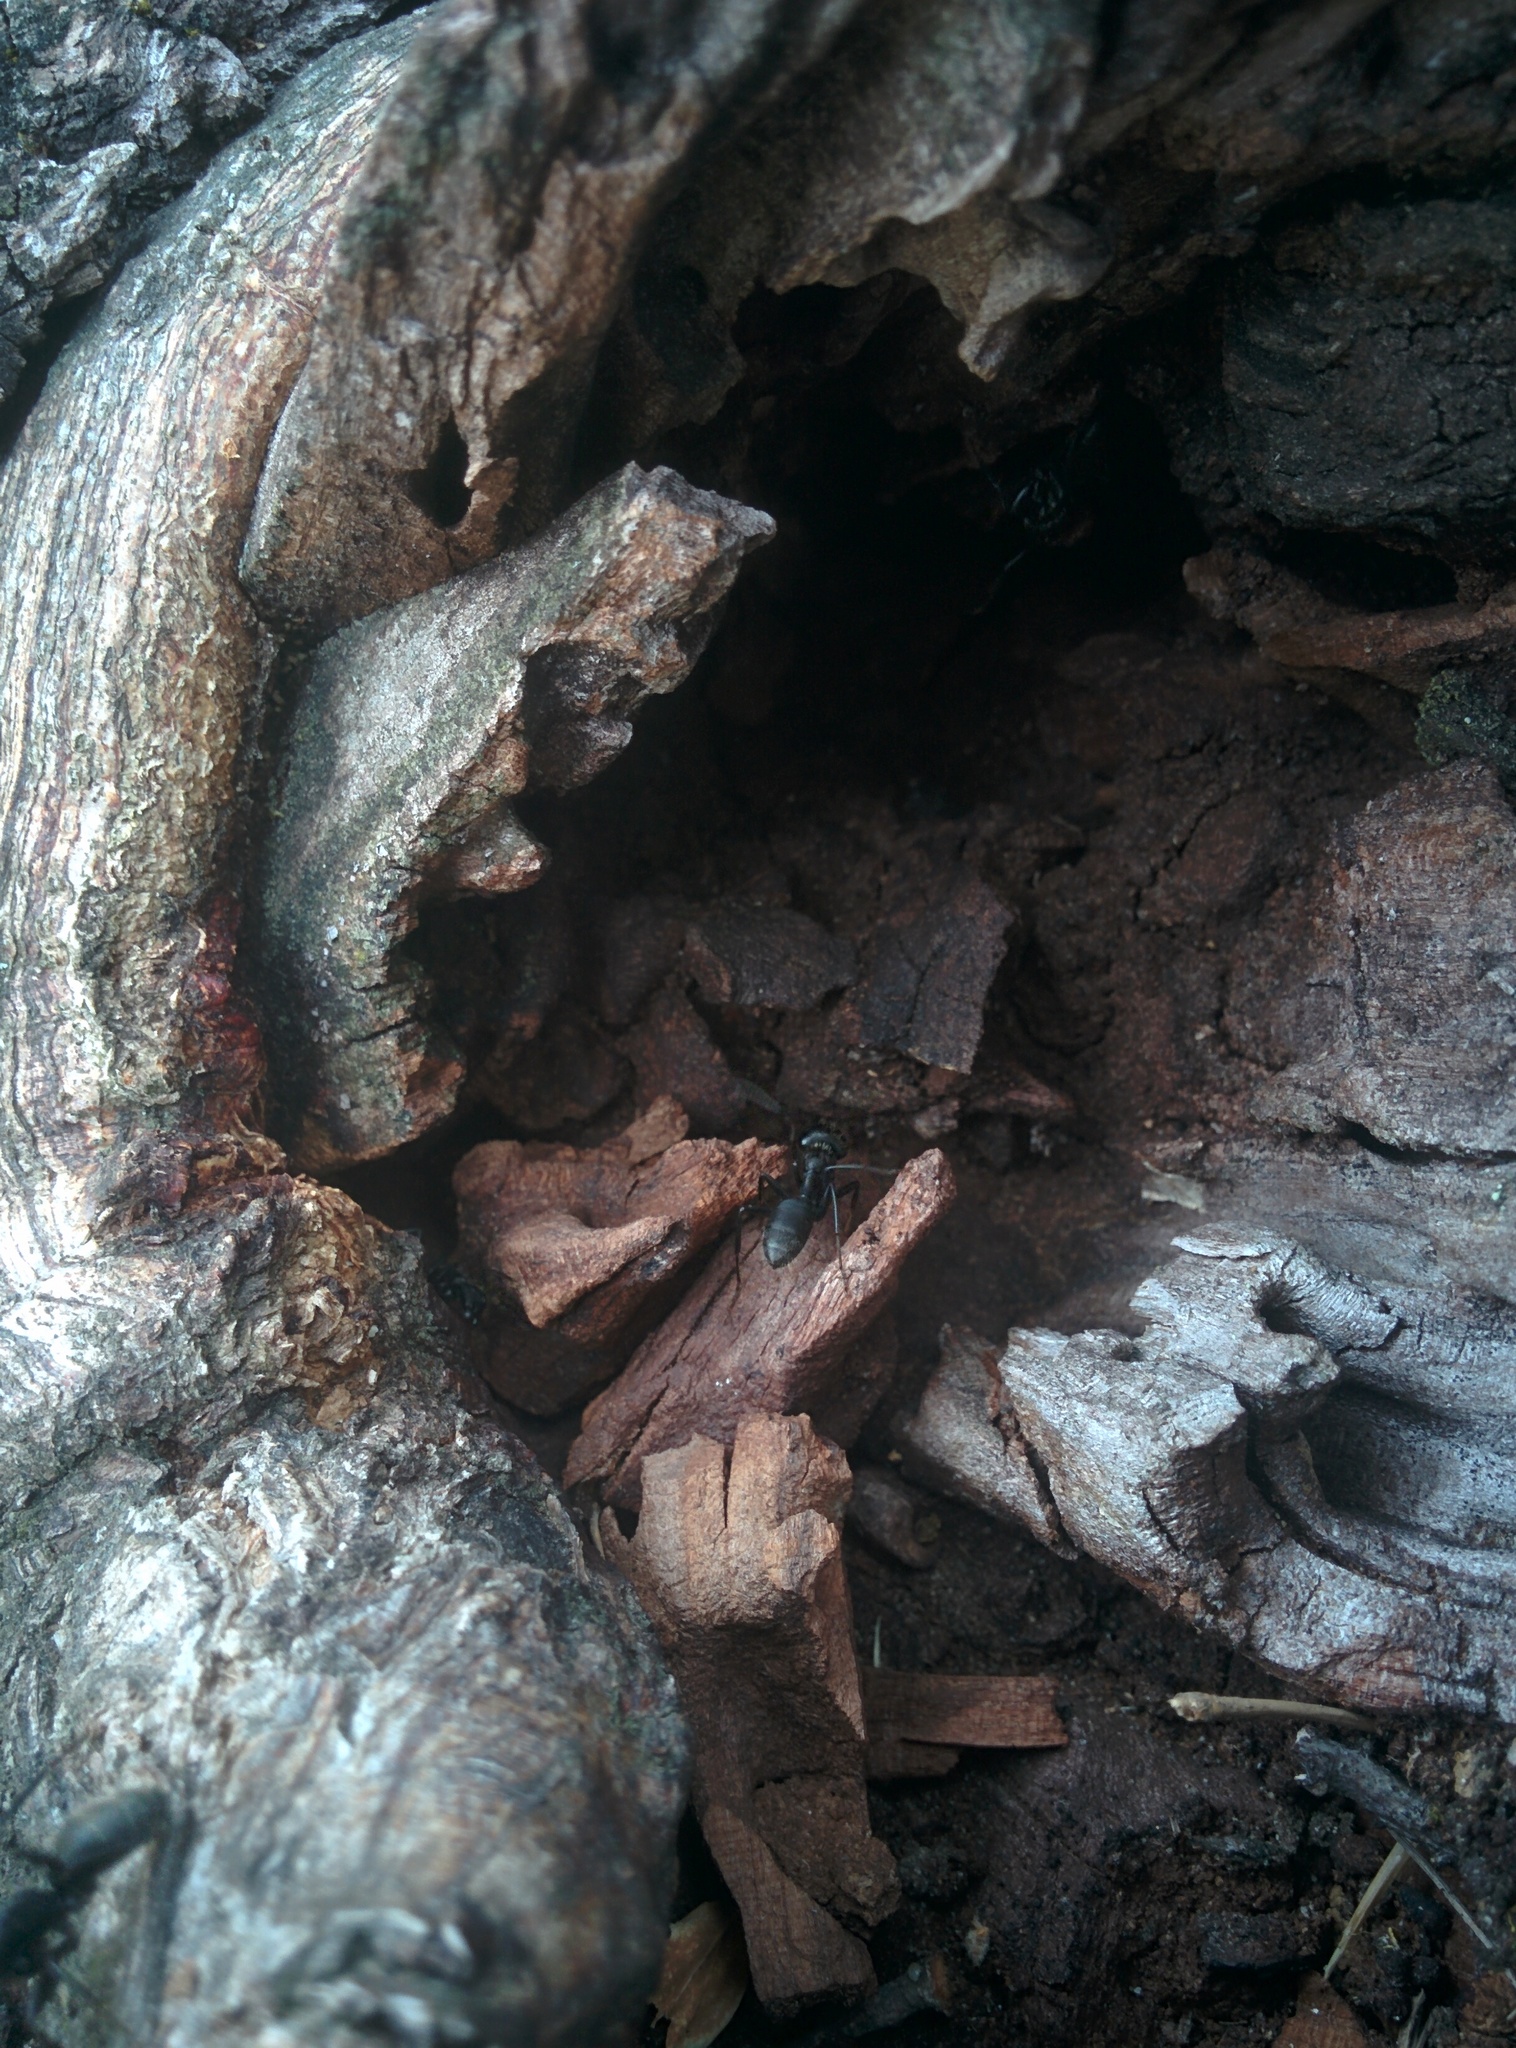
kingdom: Animalia
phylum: Arthropoda
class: Insecta
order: Hymenoptera
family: Formicidae
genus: Camponotus
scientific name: Camponotus vagus
